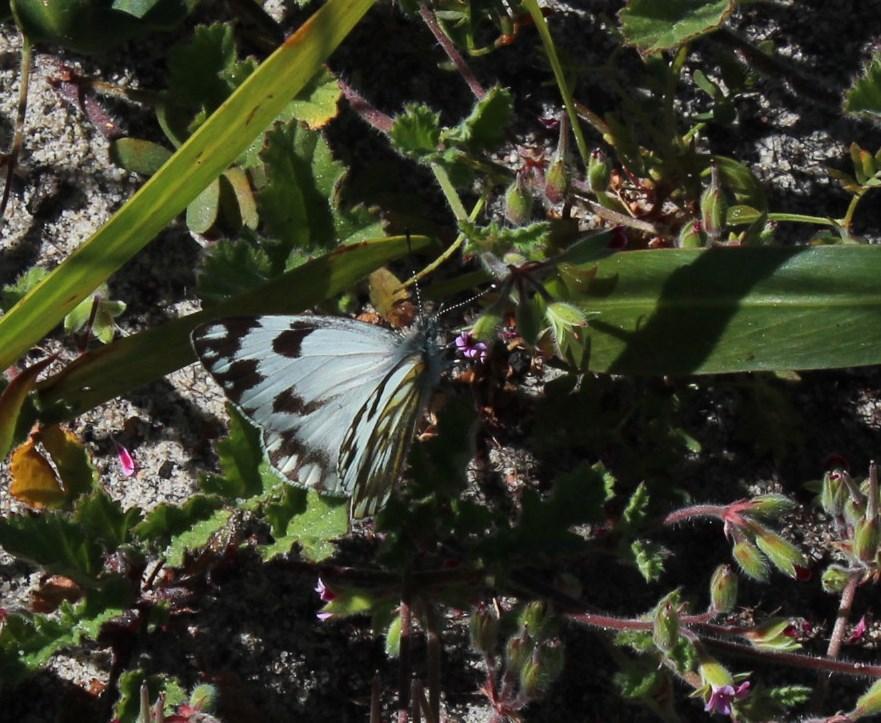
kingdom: Animalia
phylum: Arthropoda
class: Insecta
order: Lepidoptera
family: Pieridae
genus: Pontia
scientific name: Pontia helice
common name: Meadow white
